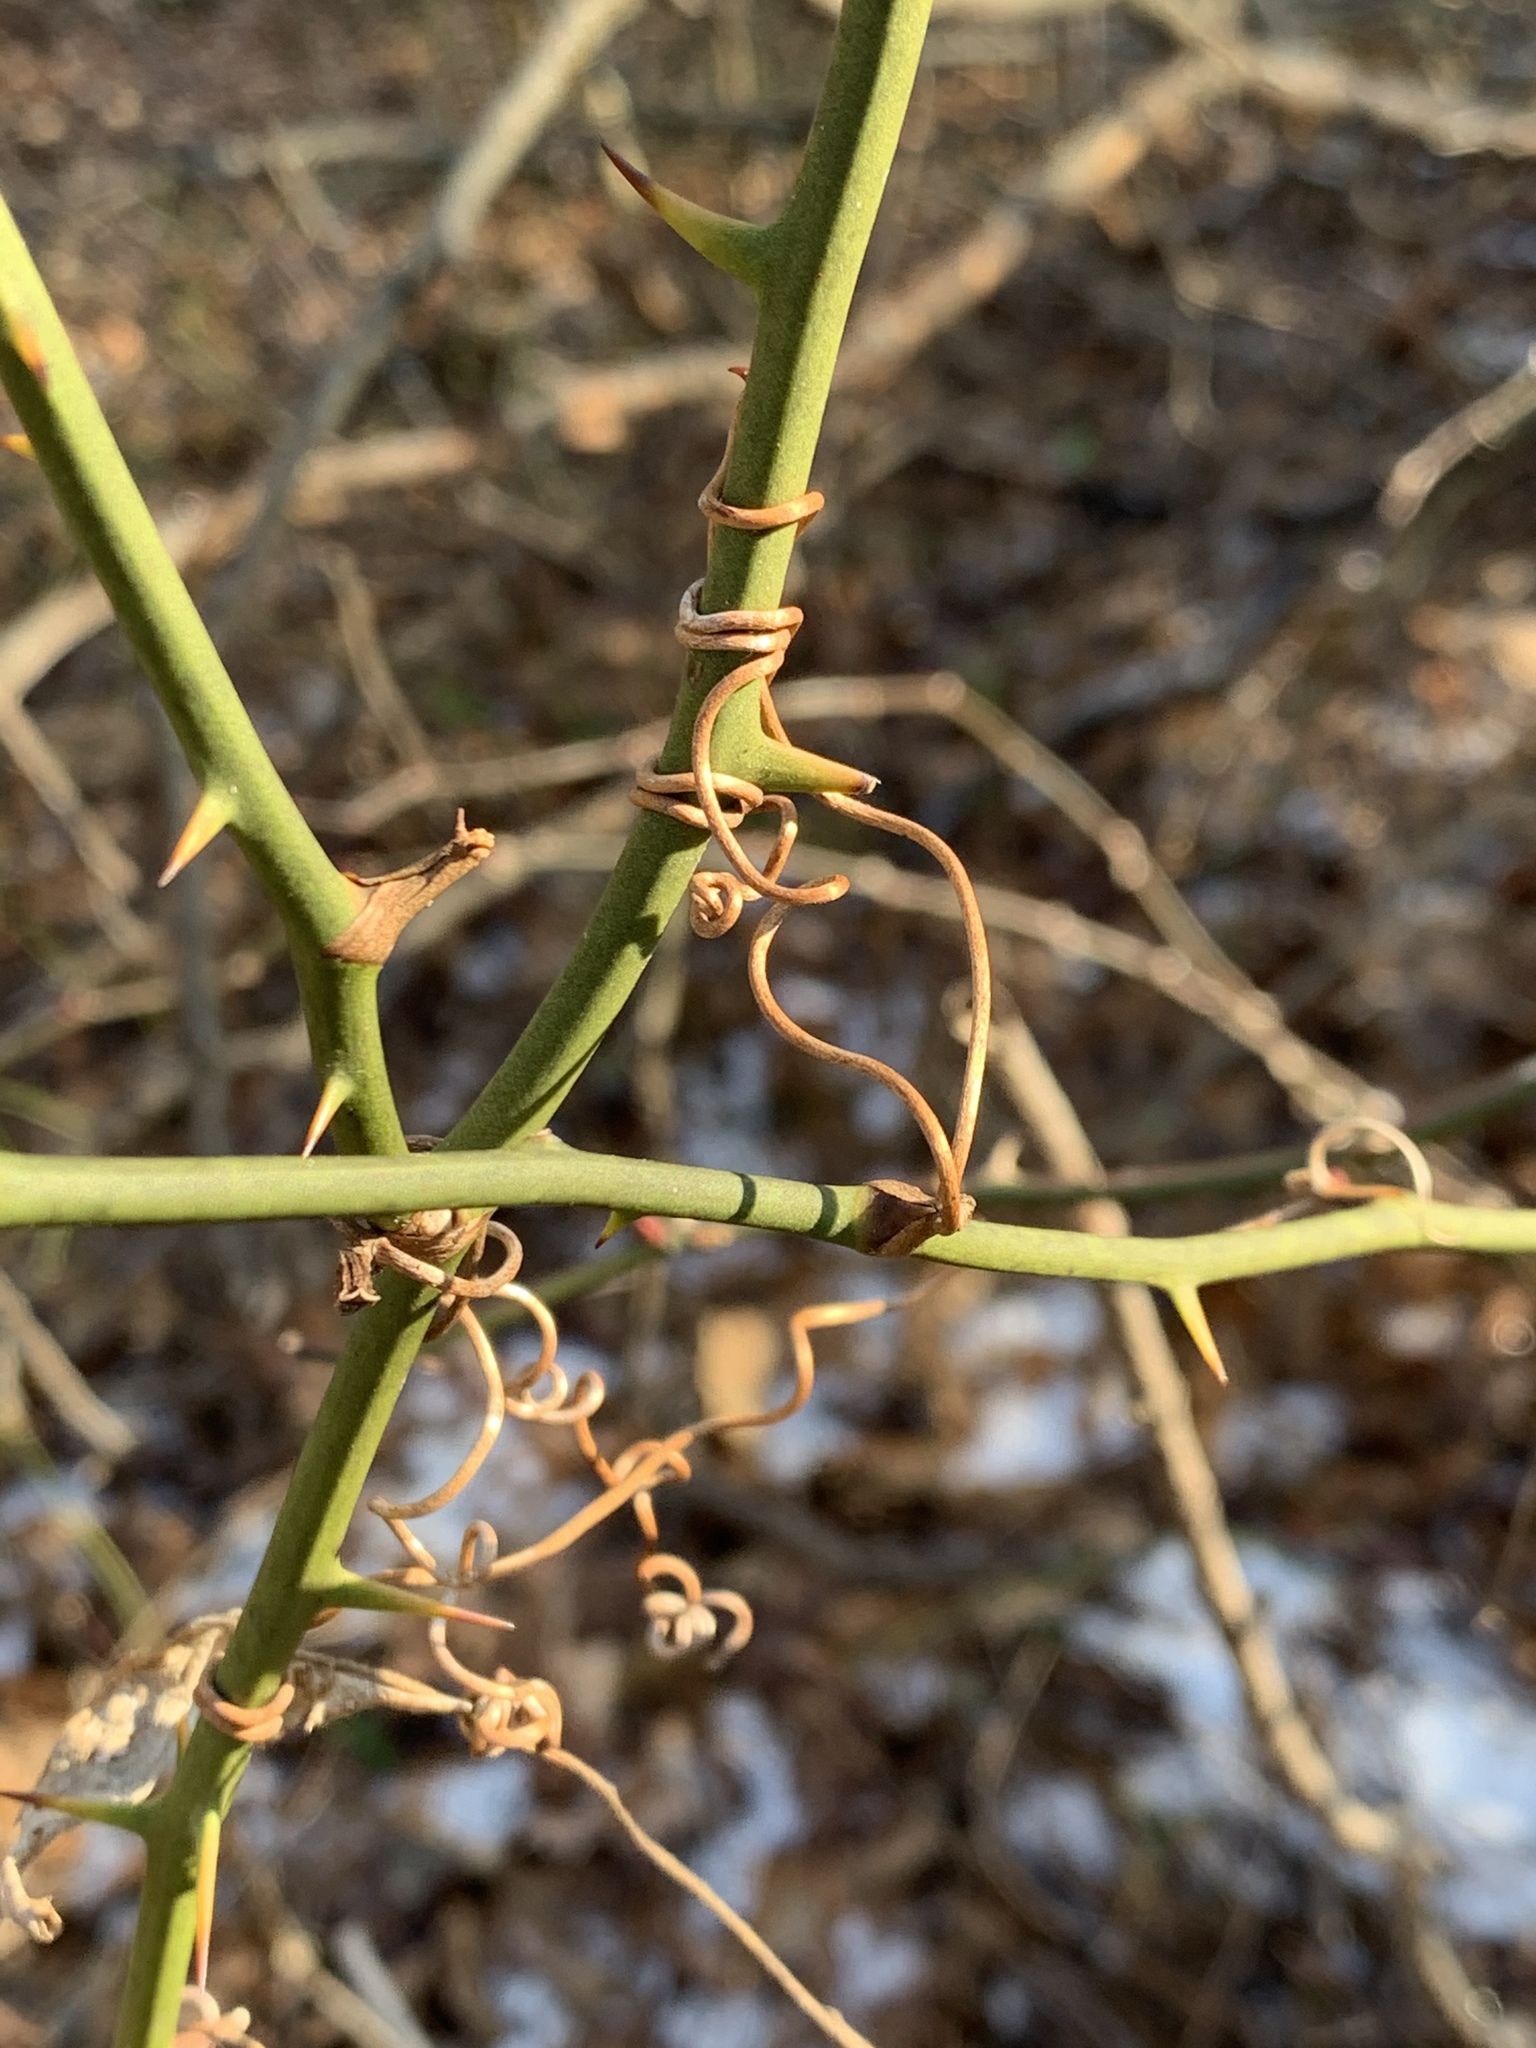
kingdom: Plantae
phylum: Tracheophyta
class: Liliopsida
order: Liliales
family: Smilacaceae
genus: Smilax
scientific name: Smilax rotundifolia
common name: Bullbriar
